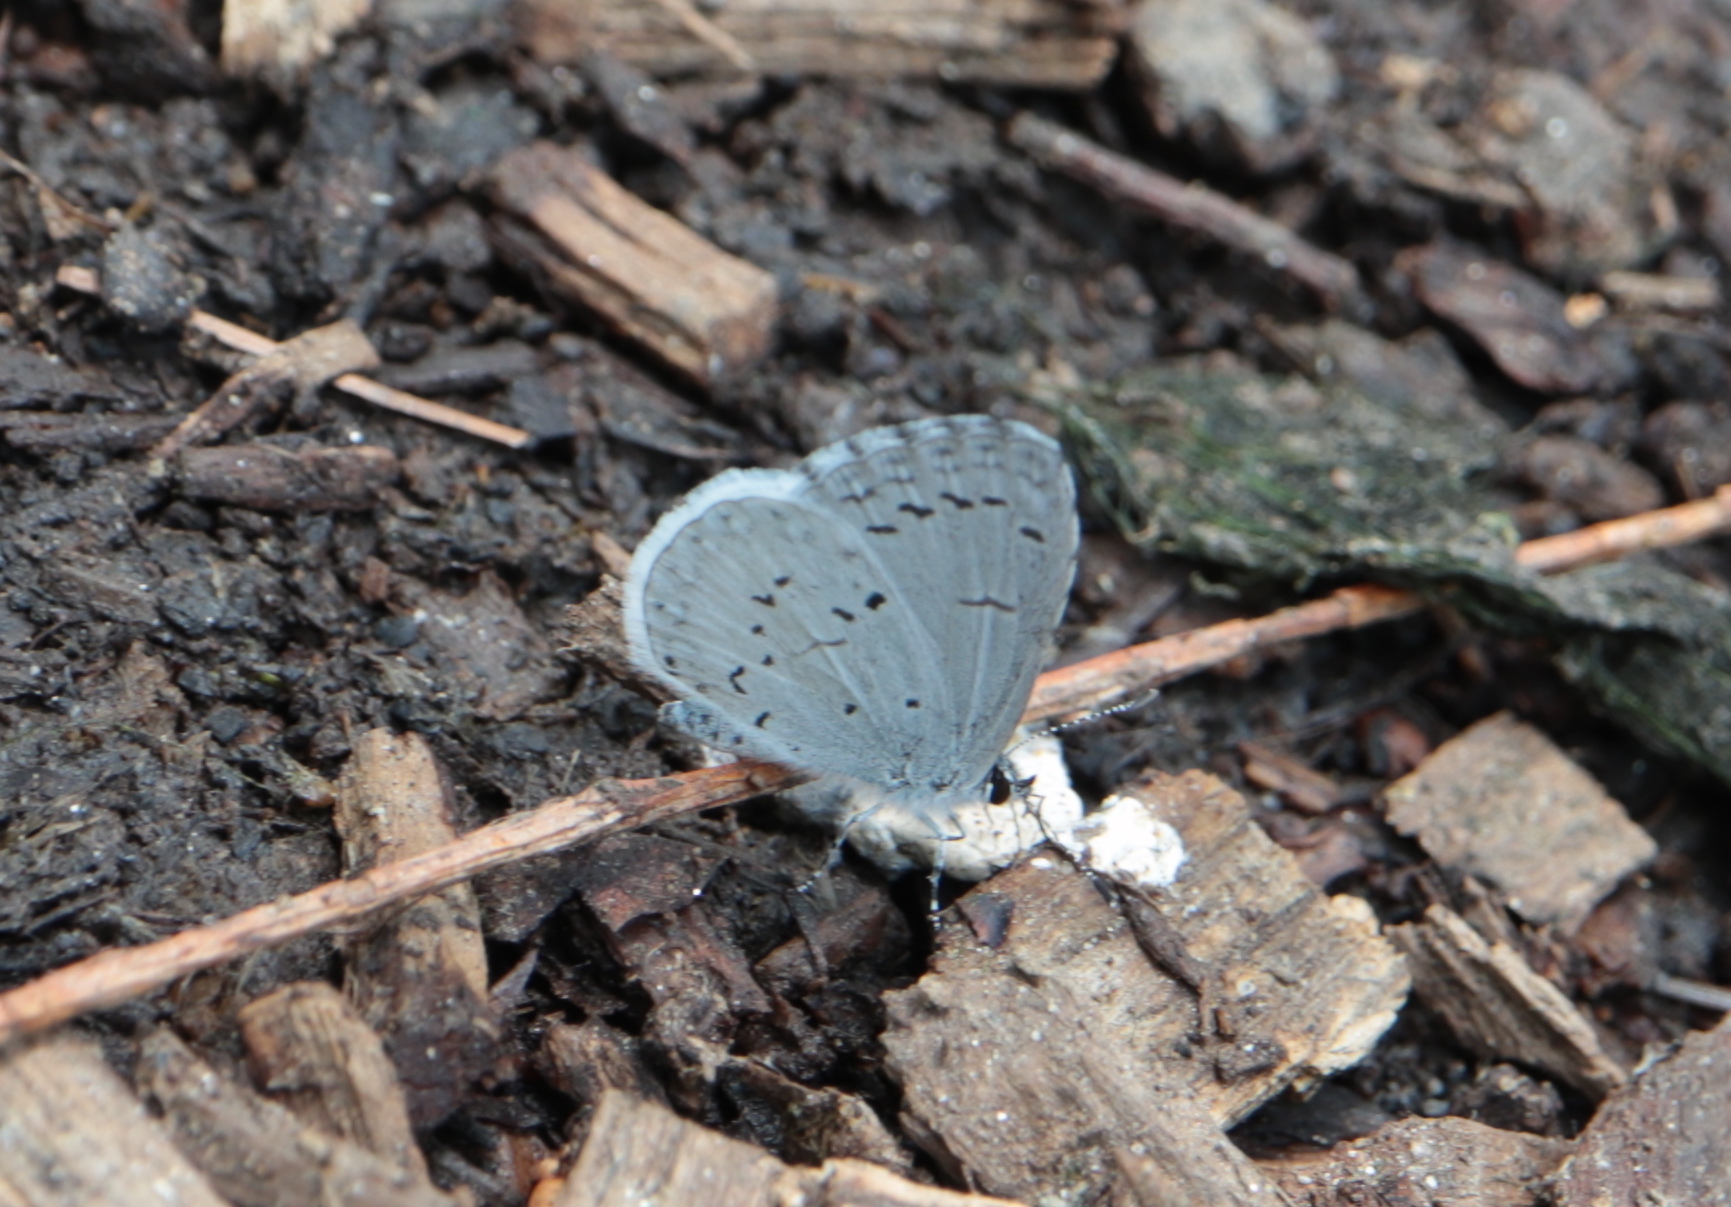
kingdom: Animalia
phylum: Arthropoda
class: Insecta
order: Lepidoptera
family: Lycaenidae
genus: Cyaniris
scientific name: Cyaniris neglecta
